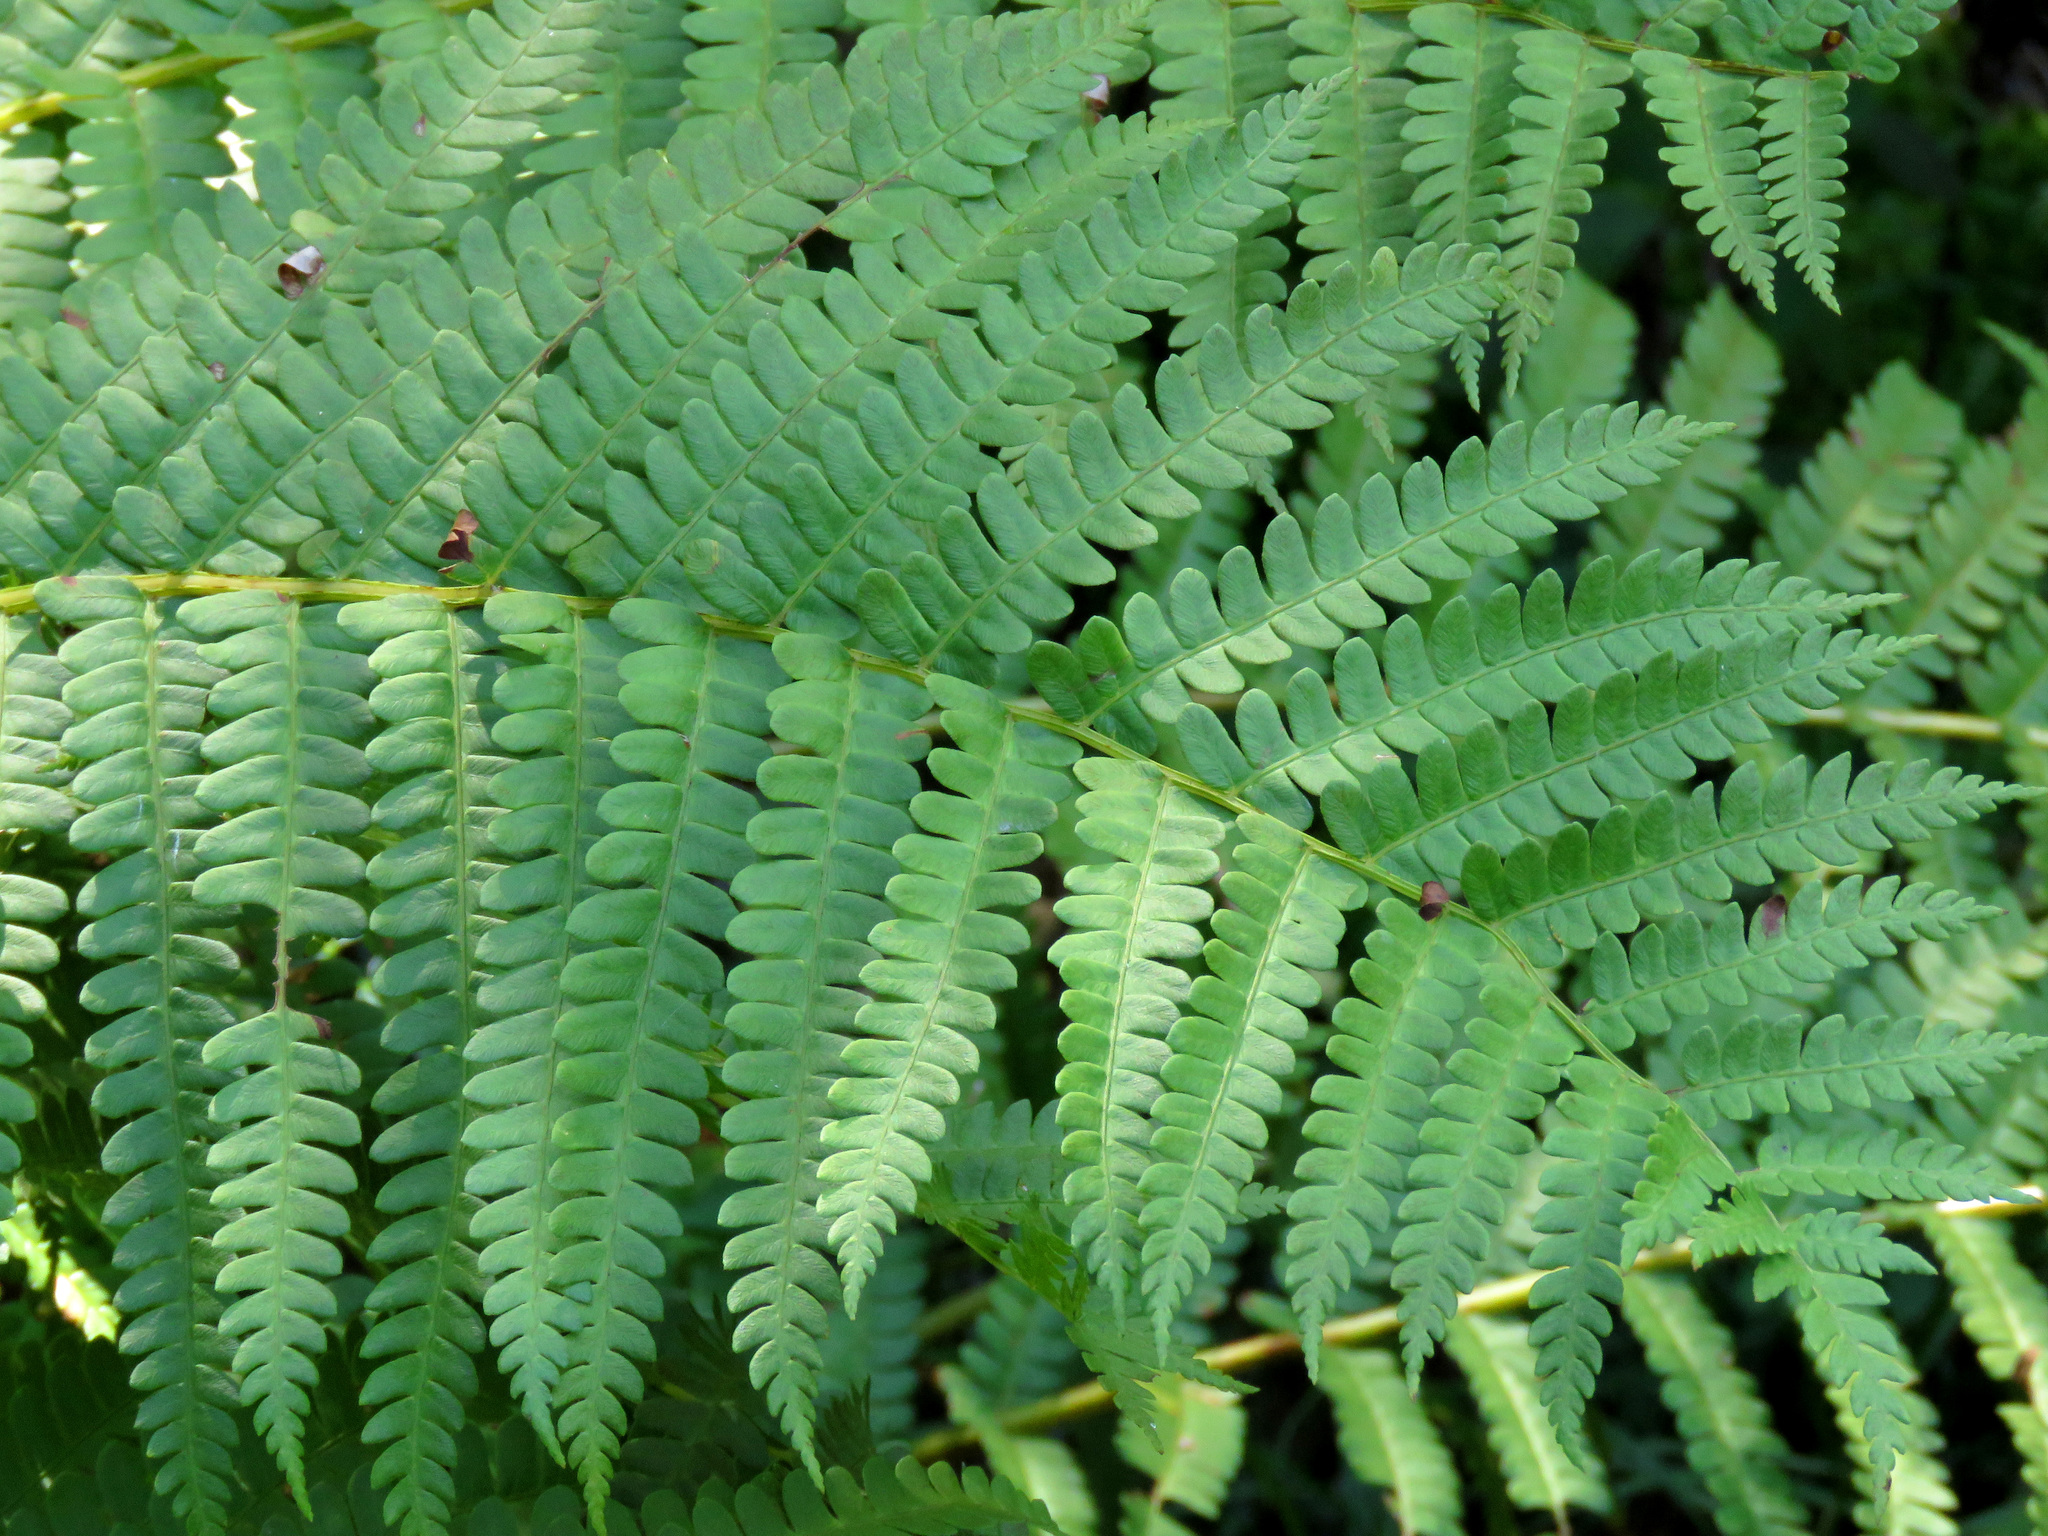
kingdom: Plantae
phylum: Tracheophyta
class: Polypodiopsida
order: Osmundales
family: Osmundaceae
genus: Osmundastrum
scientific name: Osmundastrum cinnamomeum
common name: Cinnamon fern
